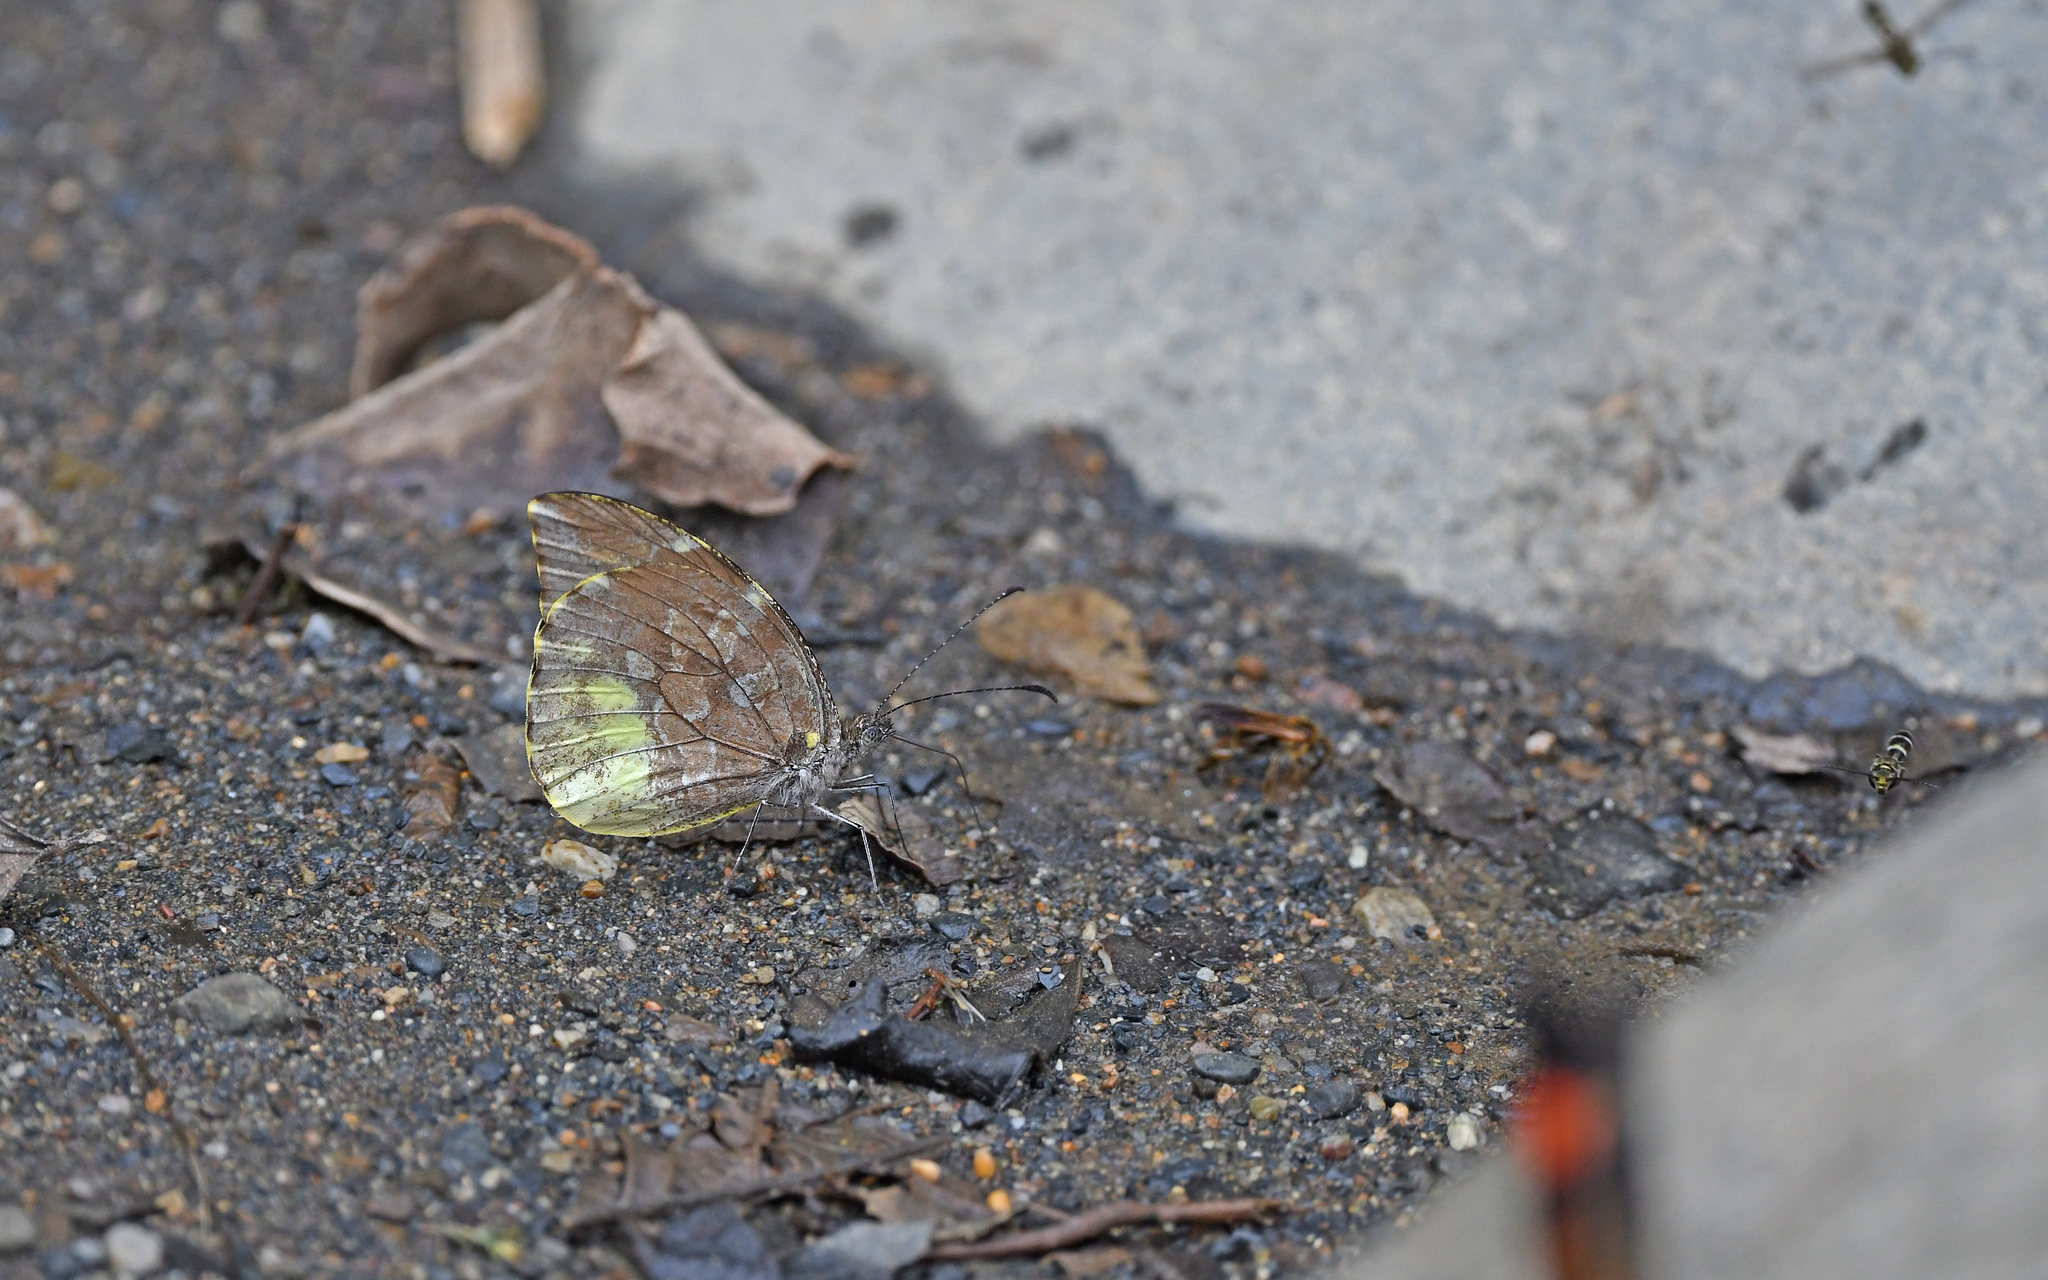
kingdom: Animalia
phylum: Arthropoda
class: Insecta
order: Lepidoptera
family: Pieridae
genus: Lieinix
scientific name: Lieinix nemesis
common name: Frosted mimic-white
